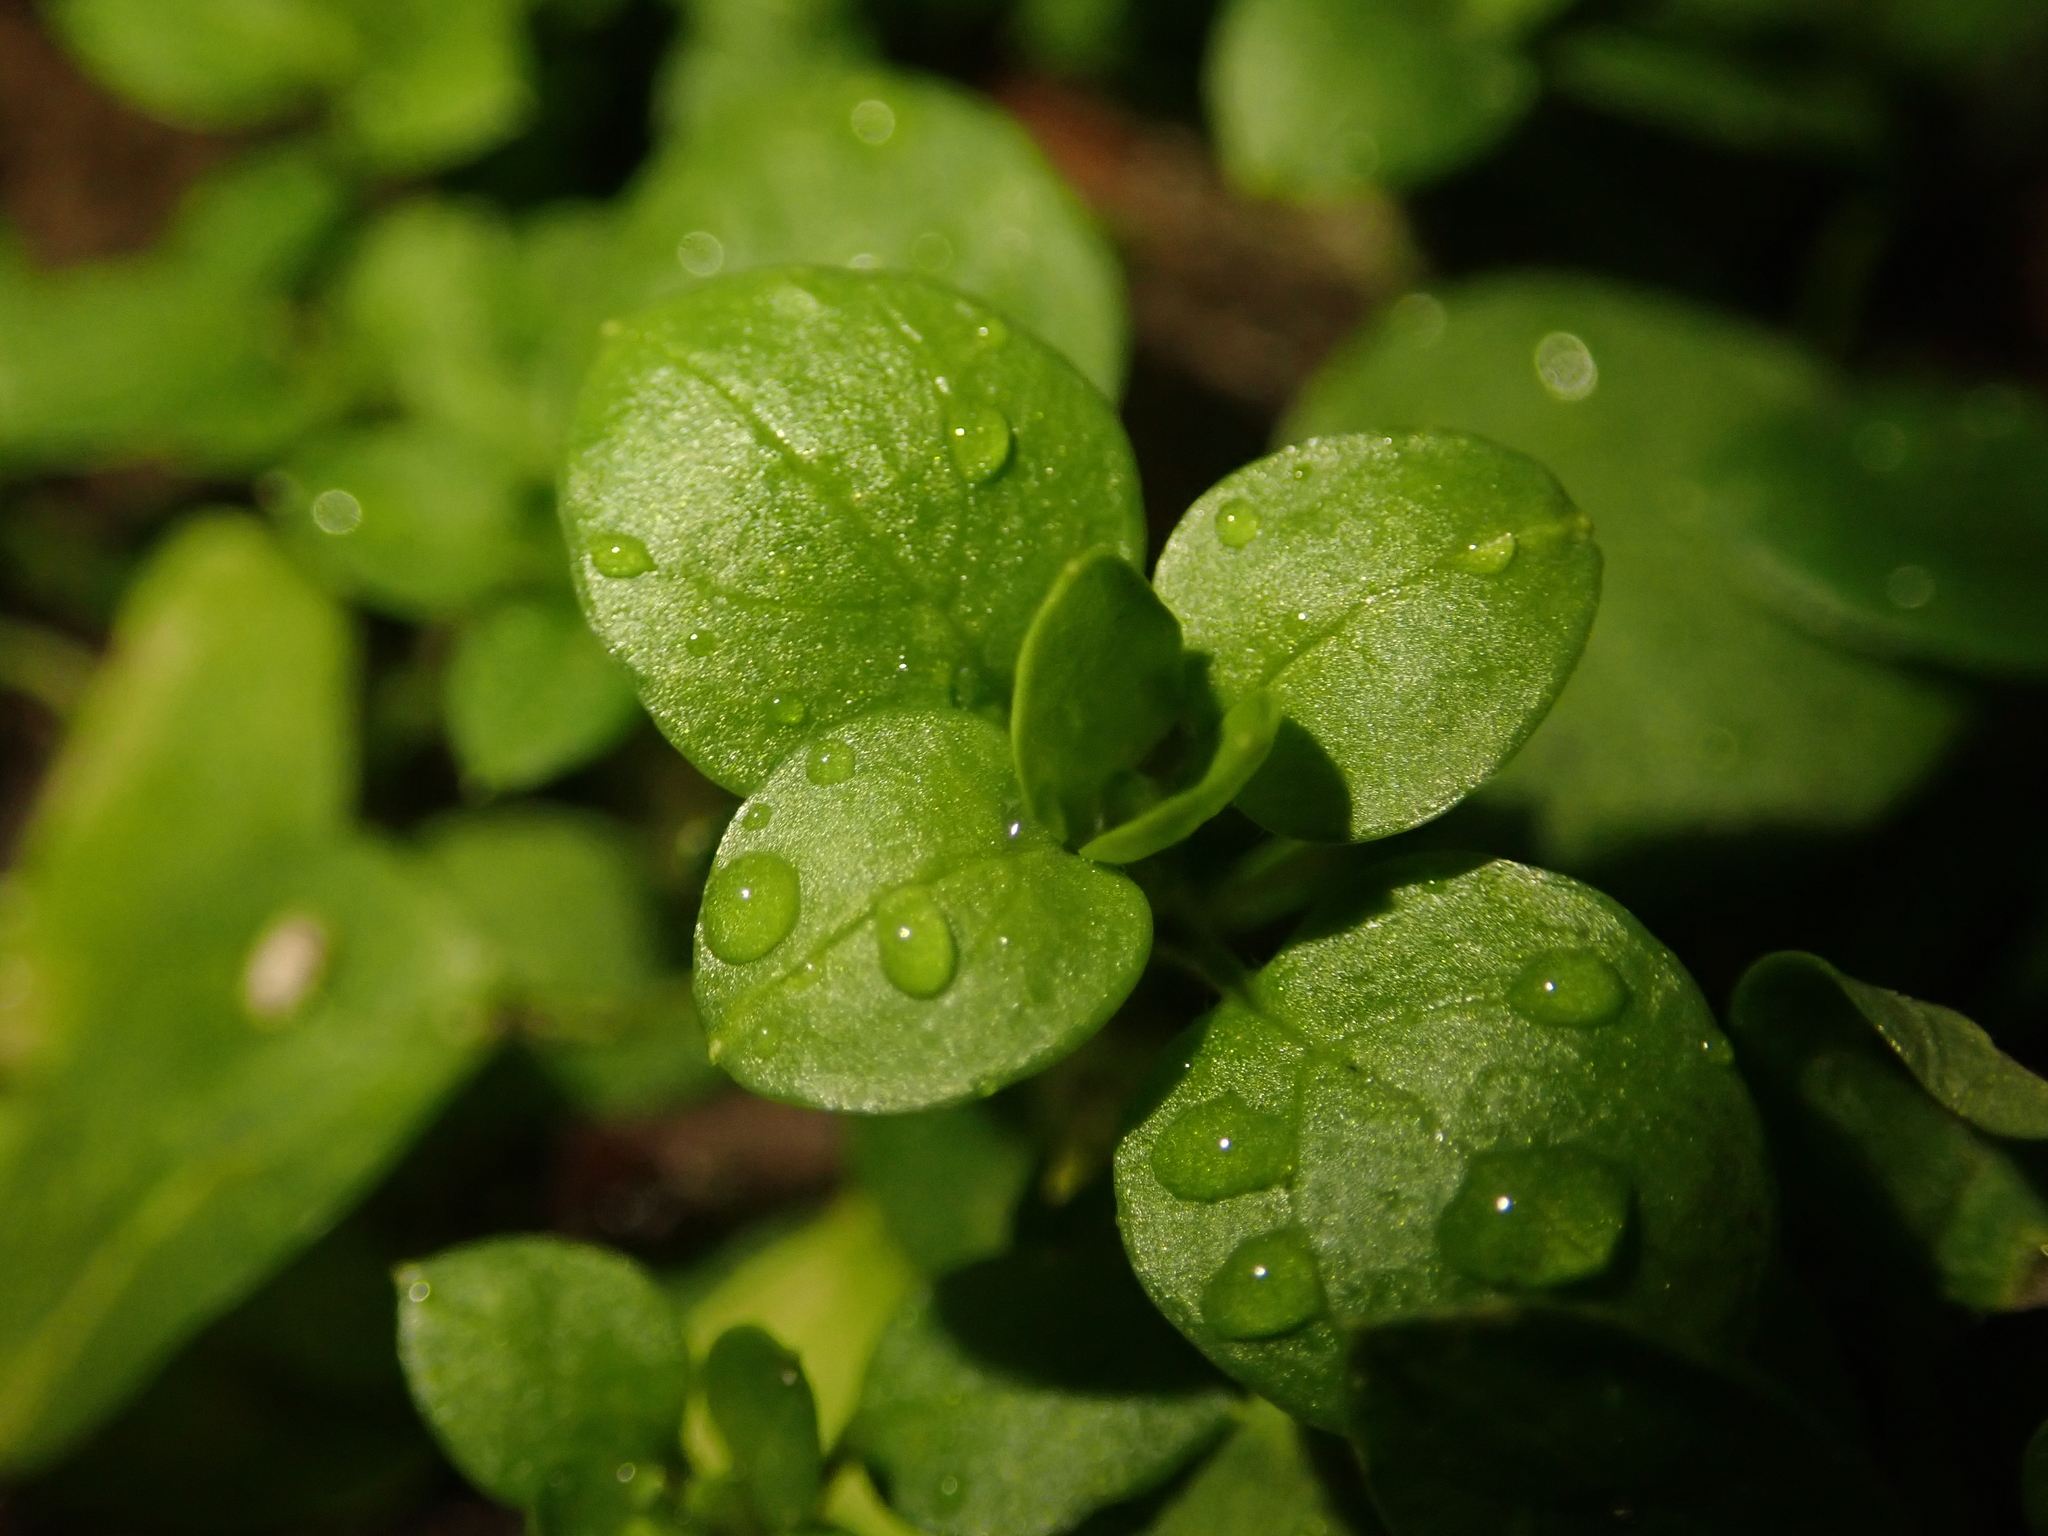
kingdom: Plantae
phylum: Tracheophyta
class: Magnoliopsida
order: Caryophyllales
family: Caryophyllaceae
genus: Stellaria
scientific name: Stellaria media
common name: Common chickweed
